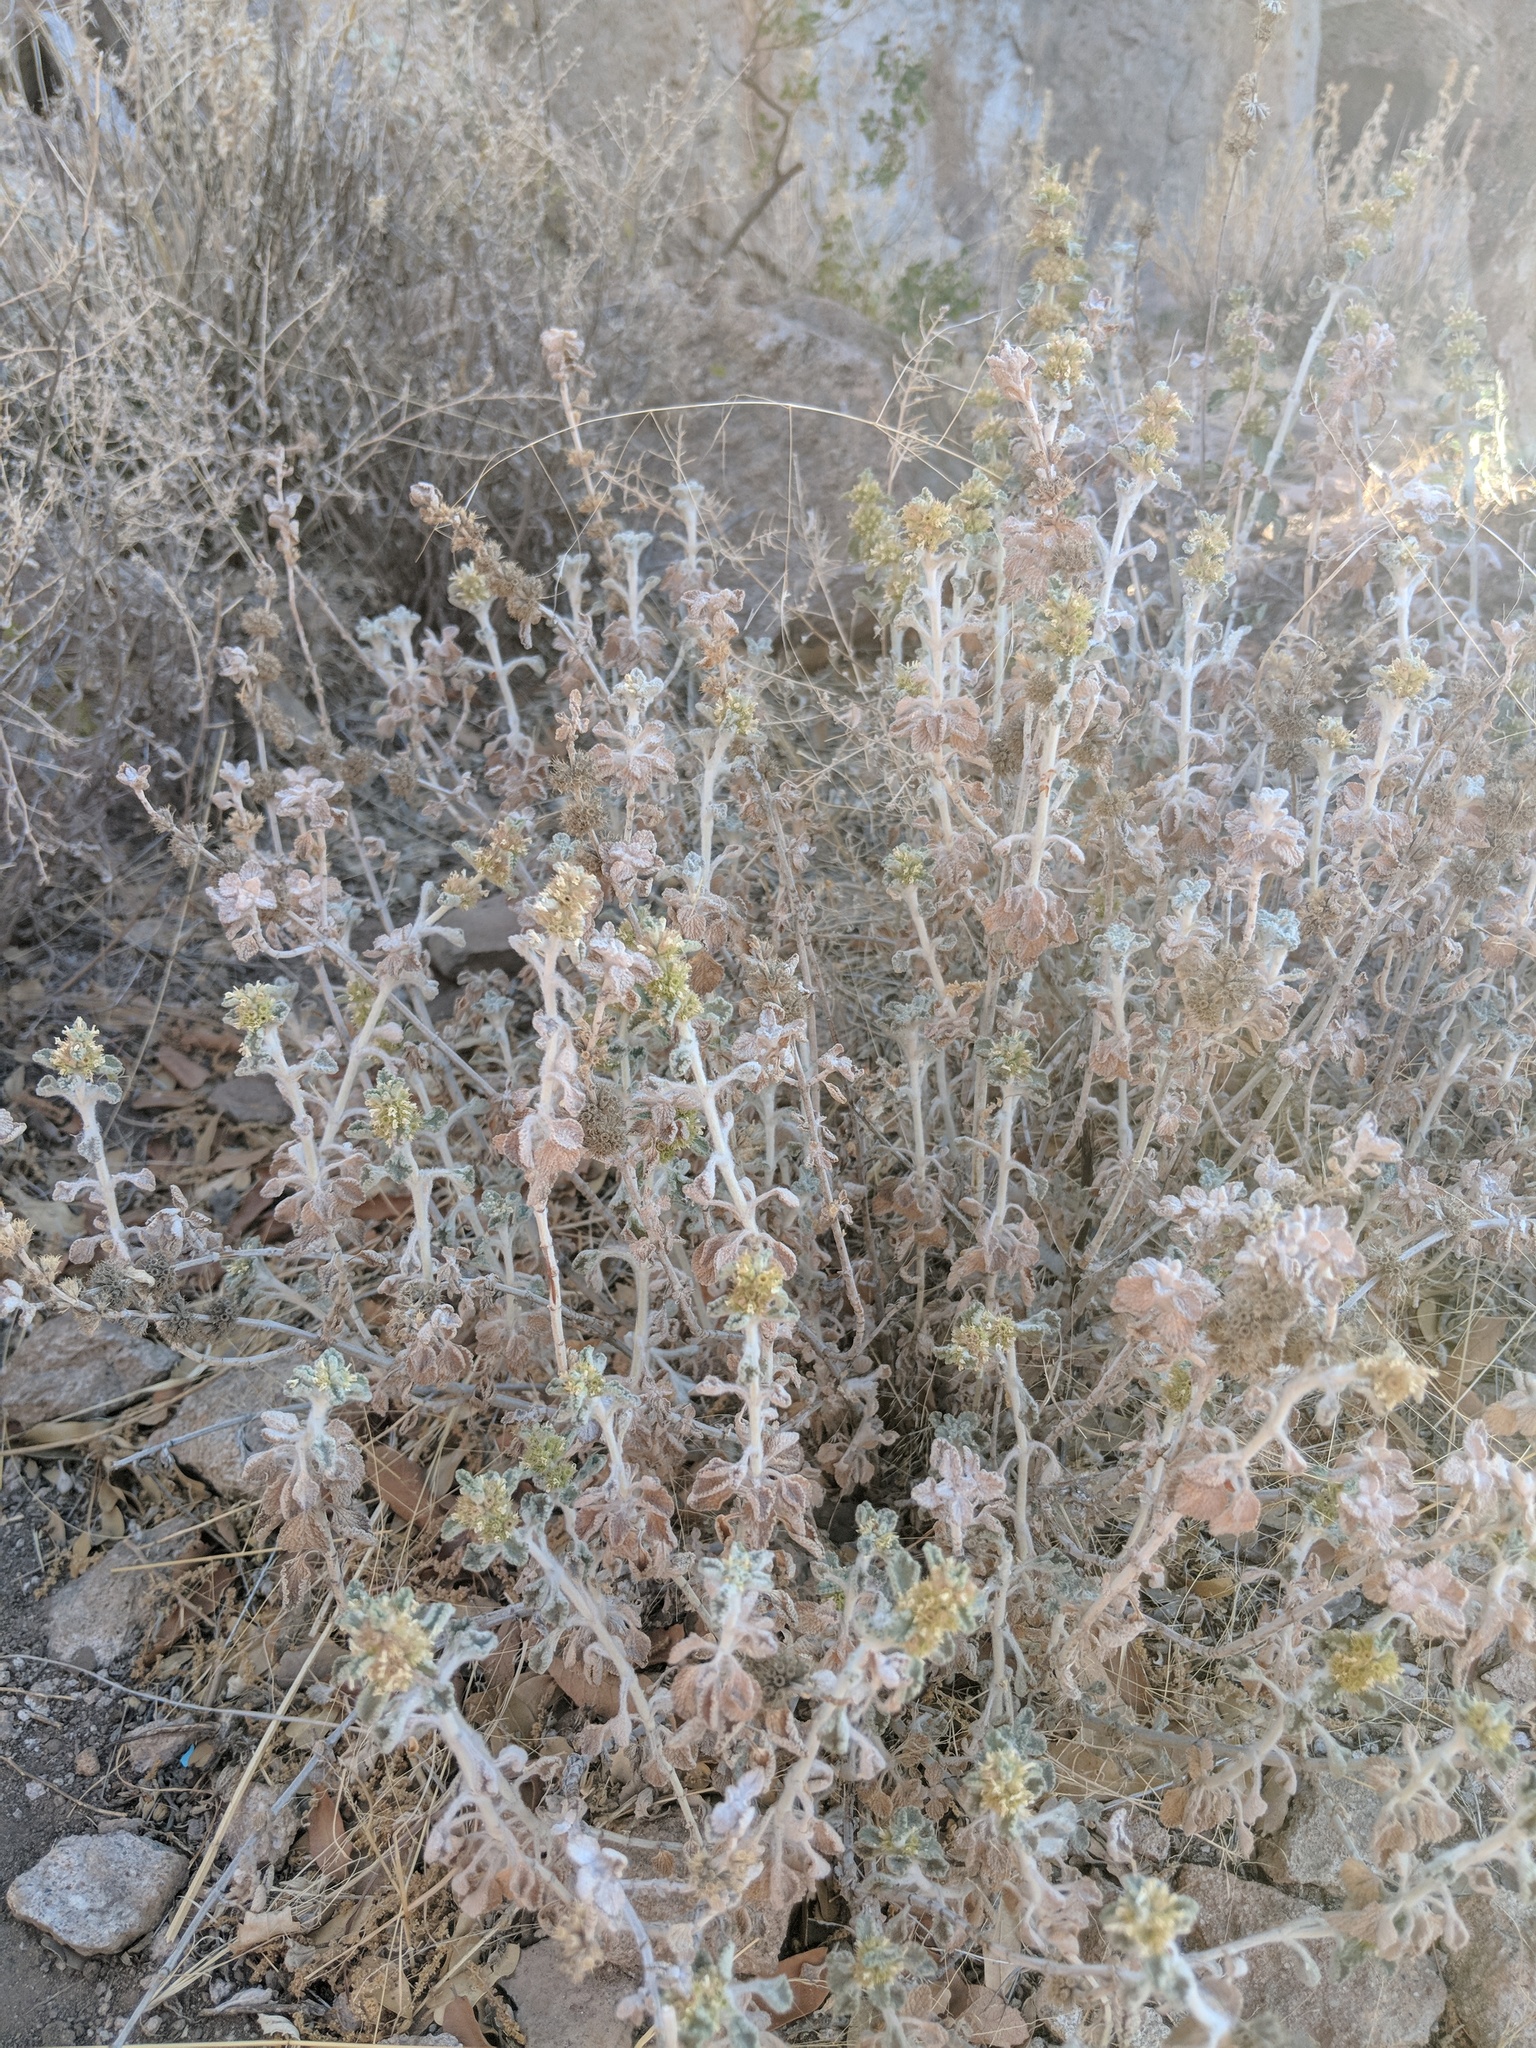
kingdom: Plantae
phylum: Tracheophyta
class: Magnoliopsida
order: Lamiales
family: Lamiaceae
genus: Marrubium
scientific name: Marrubium vulgare
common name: Horehound
